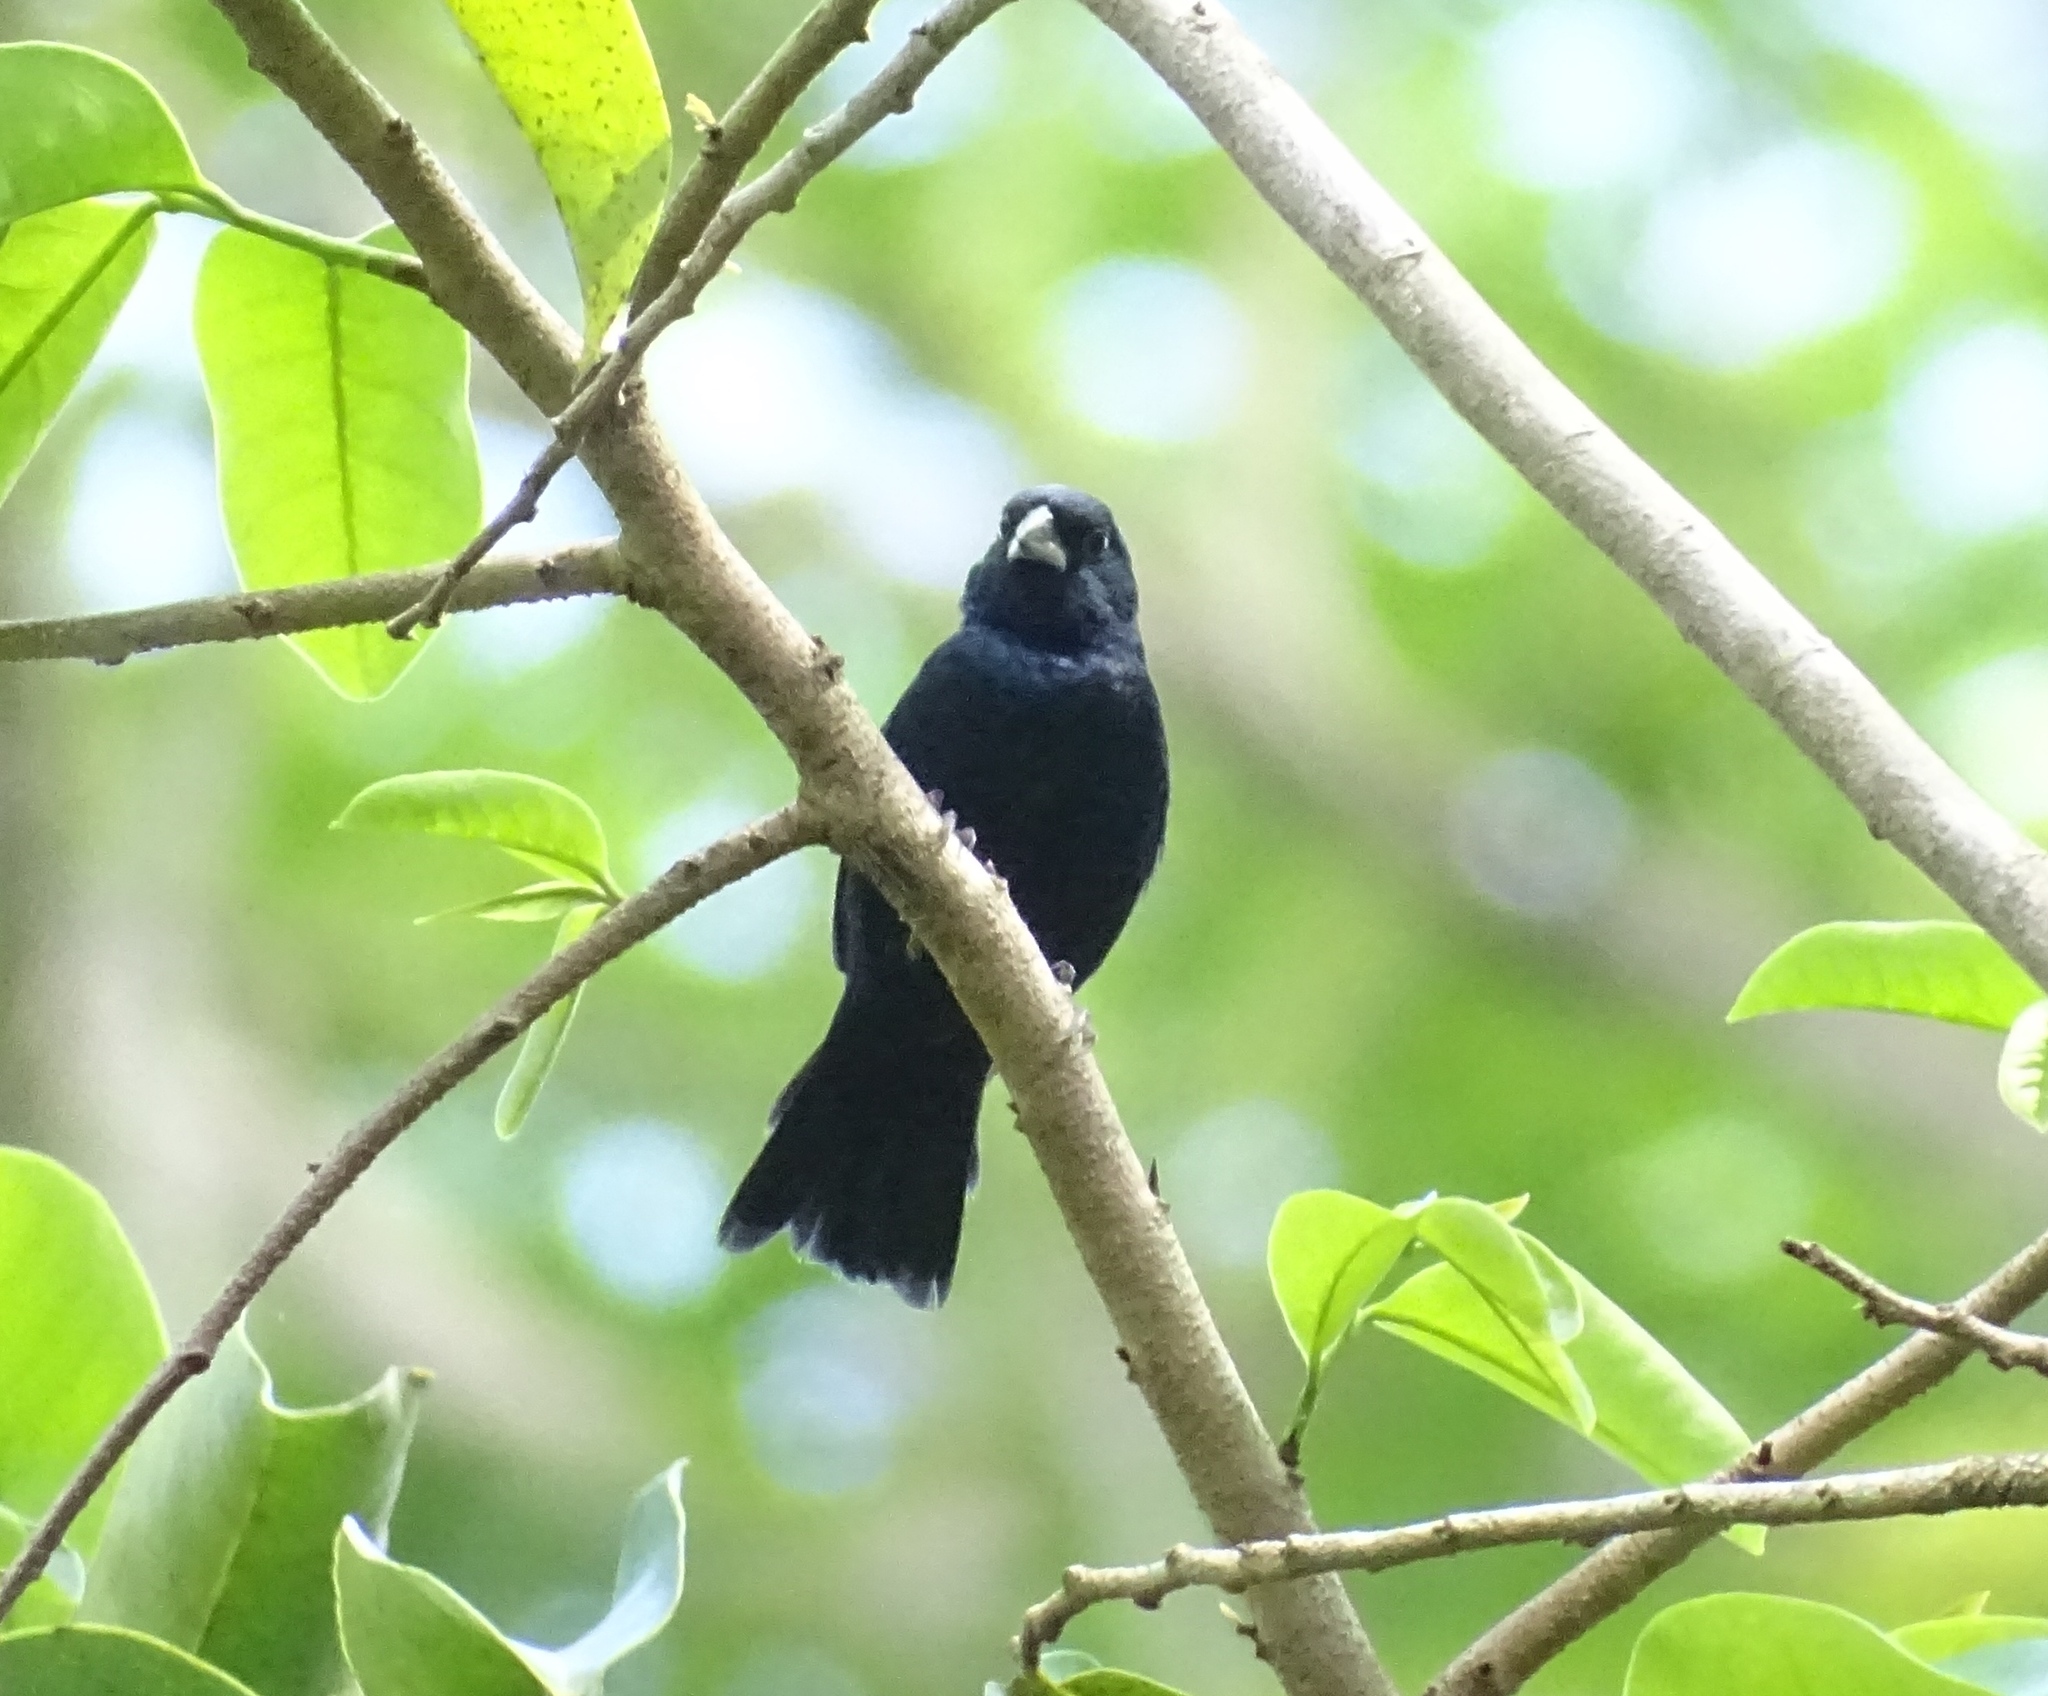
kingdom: Animalia
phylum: Chordata
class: Aves
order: Passeriformes
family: Thraupidae
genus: Volatinia
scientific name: Volatinia jacarina
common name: Blue-black grassquit
